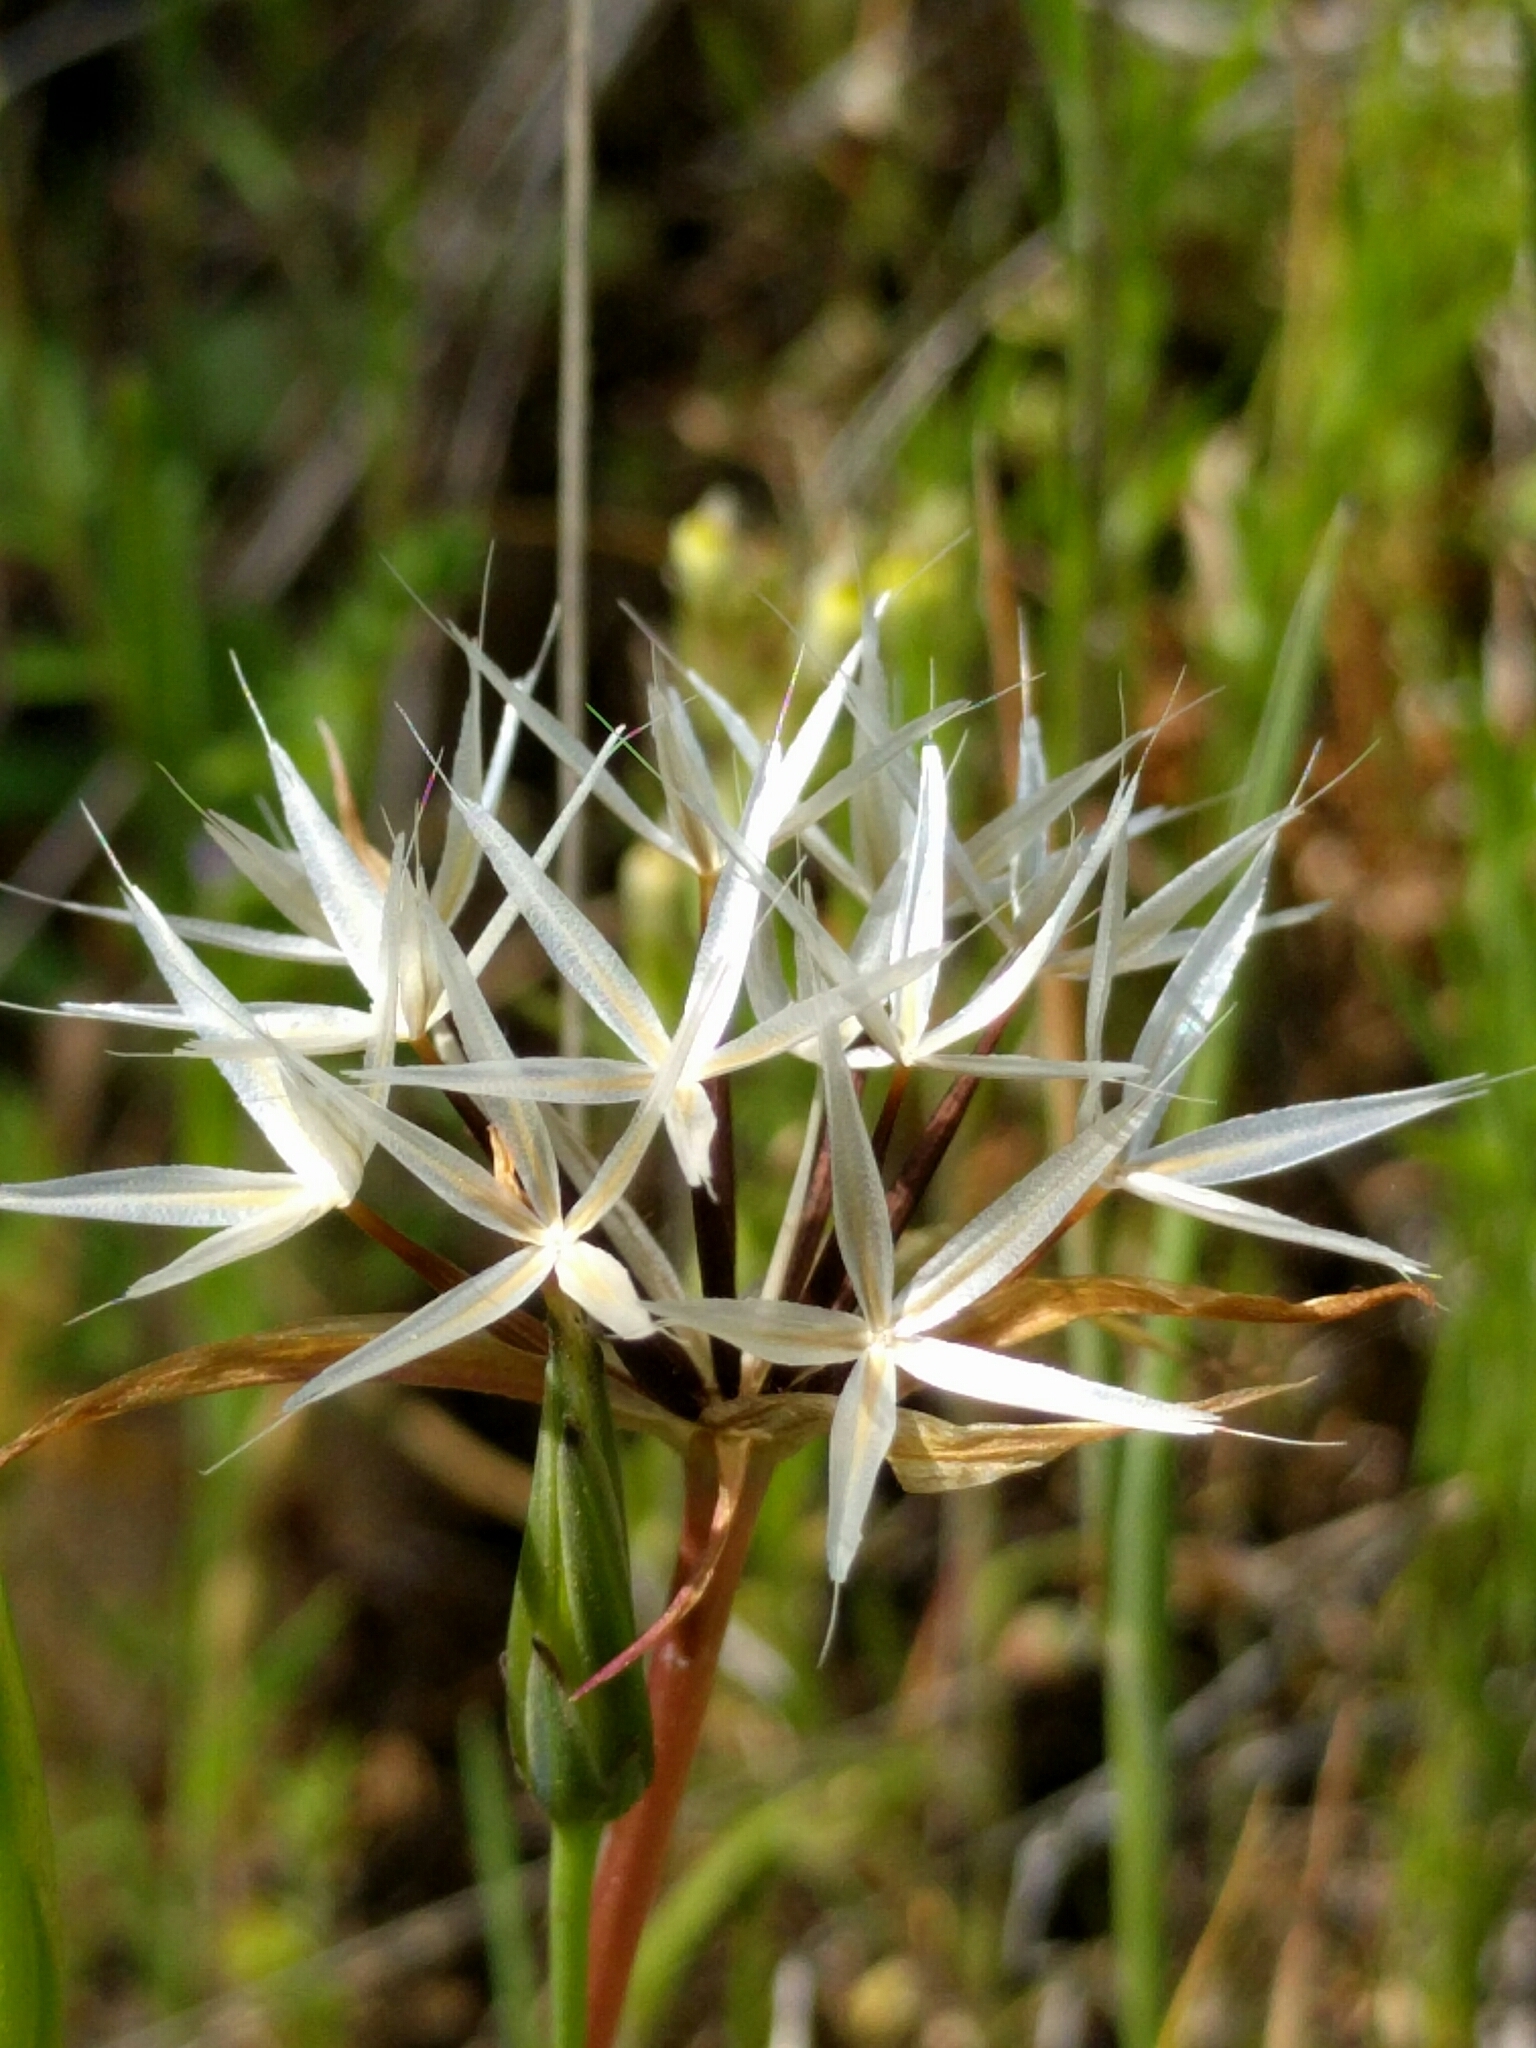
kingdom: Plantae
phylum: Tracheophyta
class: Magnoliopsida
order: Asterales
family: Asteraceae
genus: Microseris
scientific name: Microseris lindleyi
